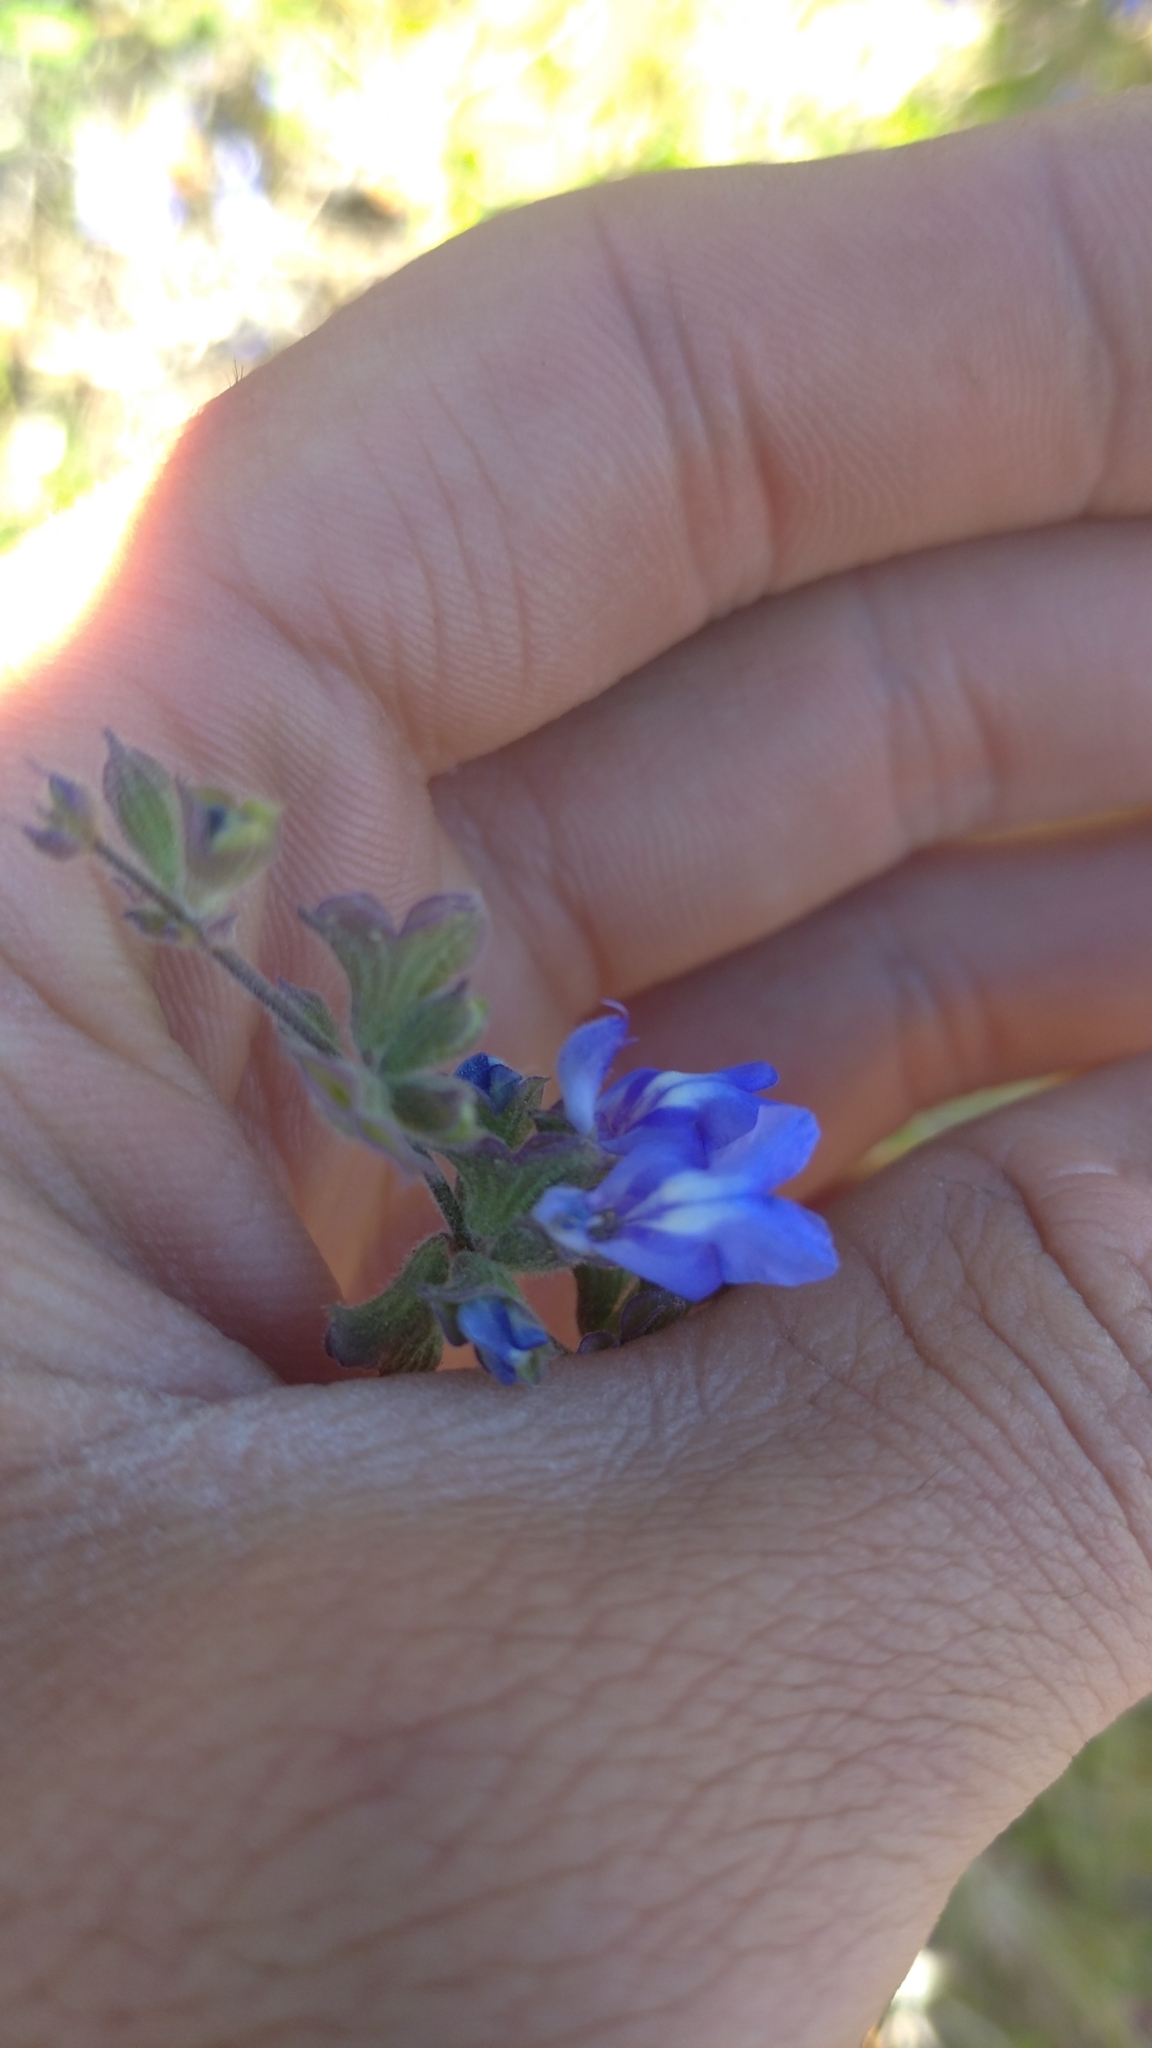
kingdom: Plantae
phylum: Tracheophyta
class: Magnoliopsida
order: Lamiales
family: Lamiaceae
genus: Salvia
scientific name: Salvia cuspidata
